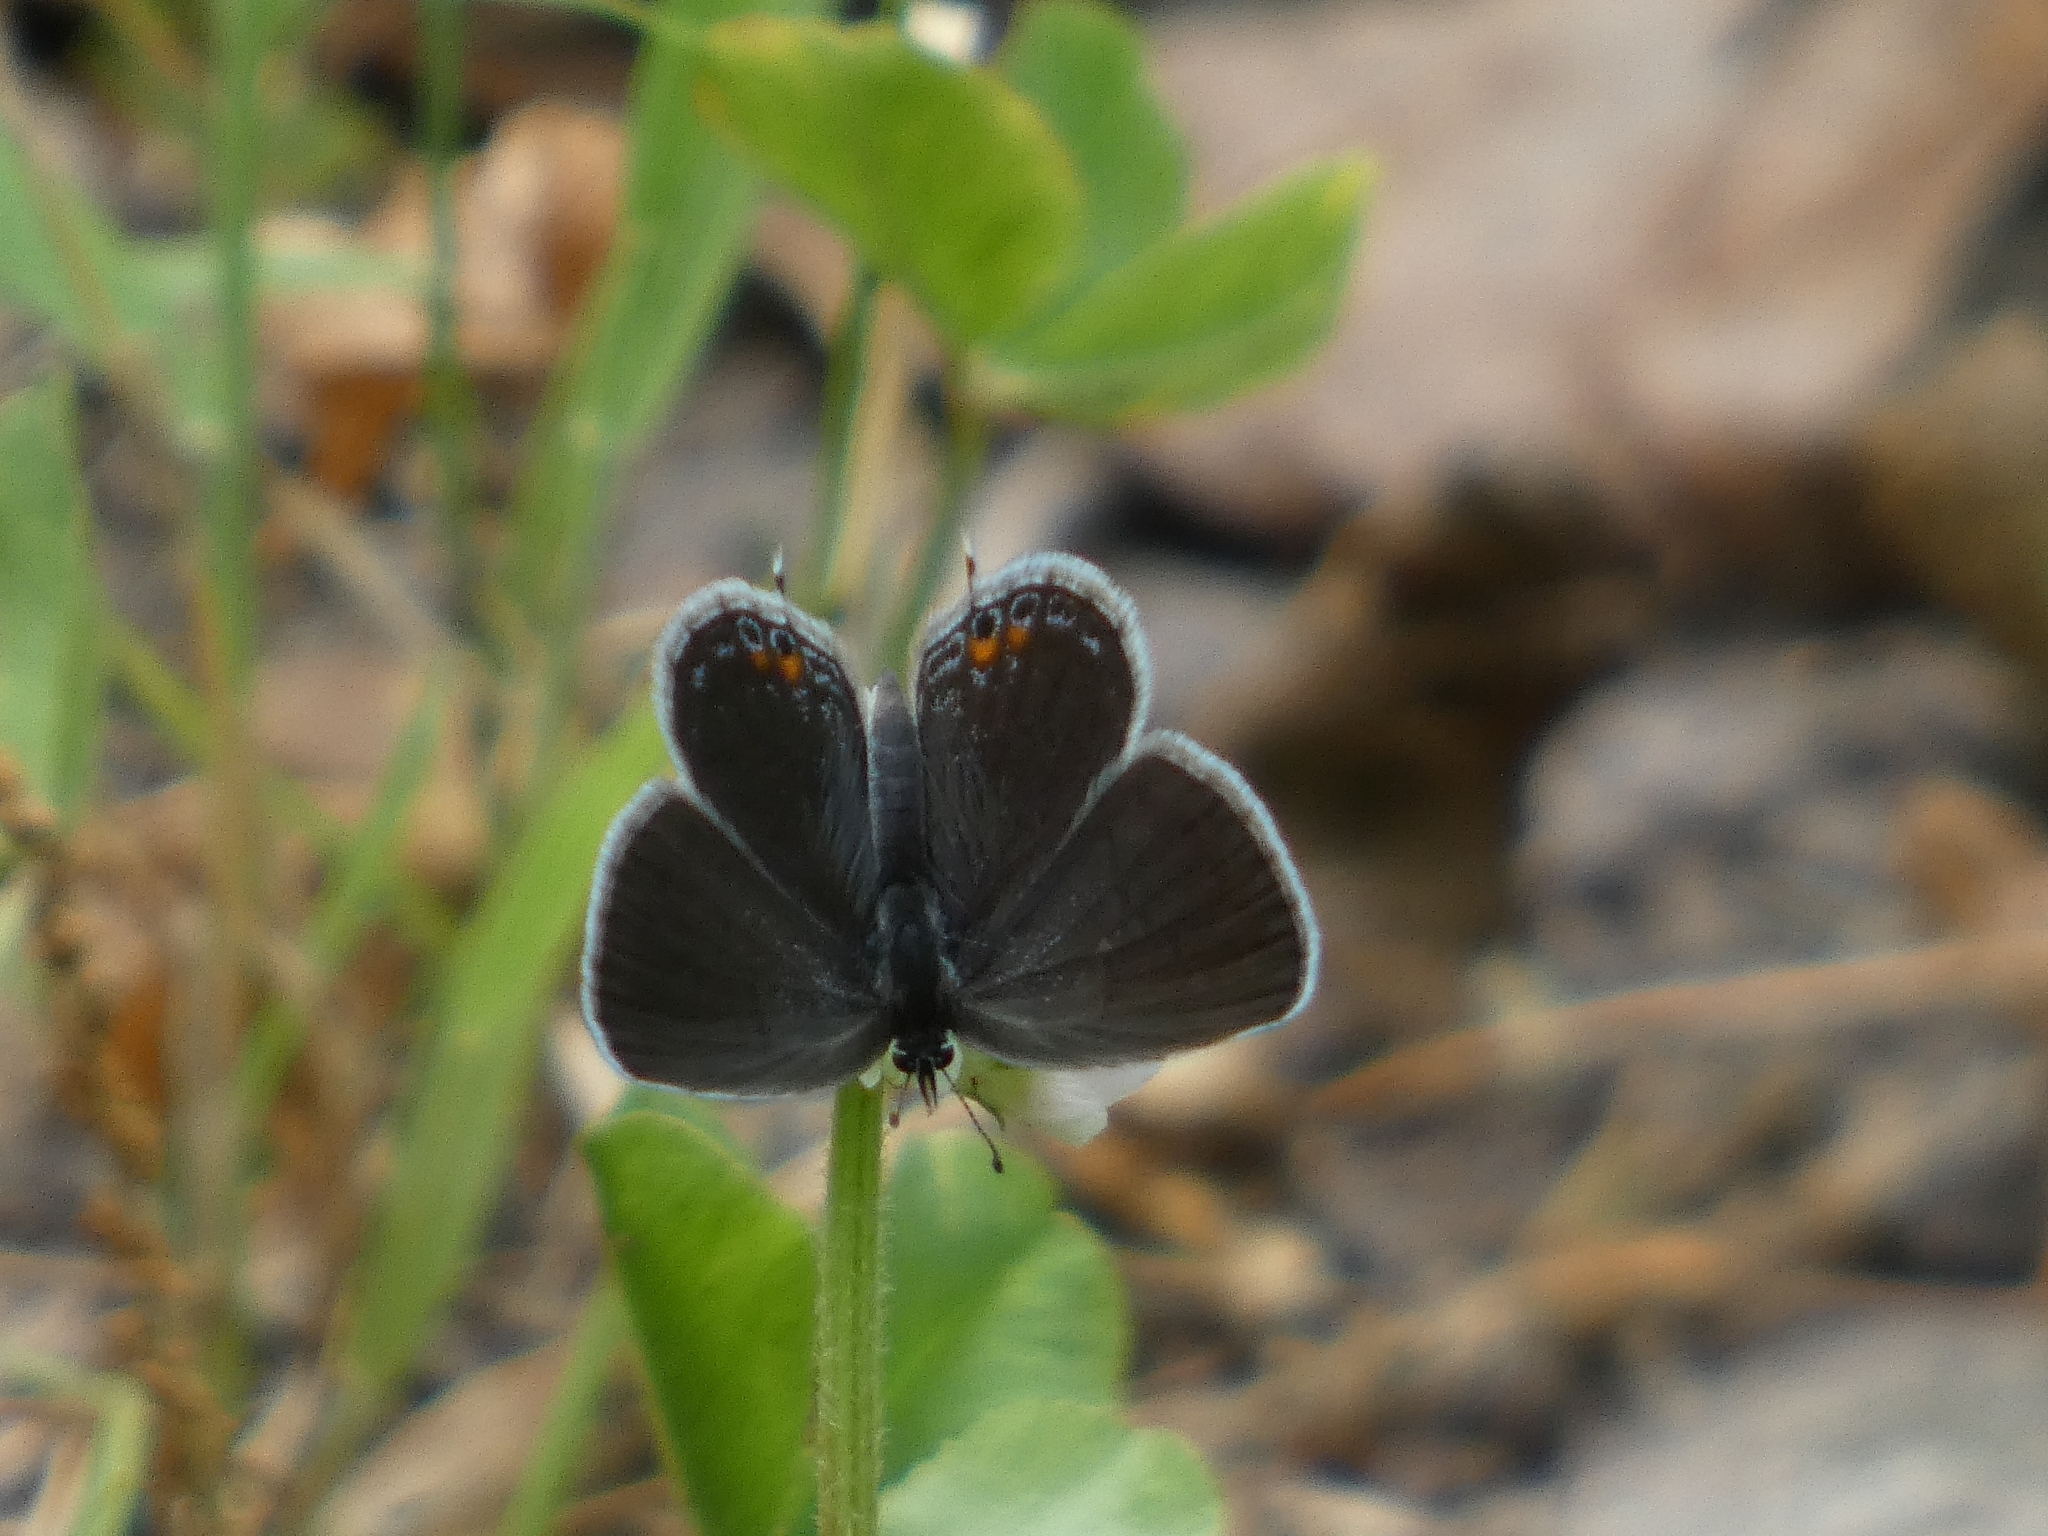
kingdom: Animalia
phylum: Arthropoda
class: Insecta
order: Lepidoptera
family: Lycaenidae
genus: Elkalyce
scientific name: Elkalyce comyntas
